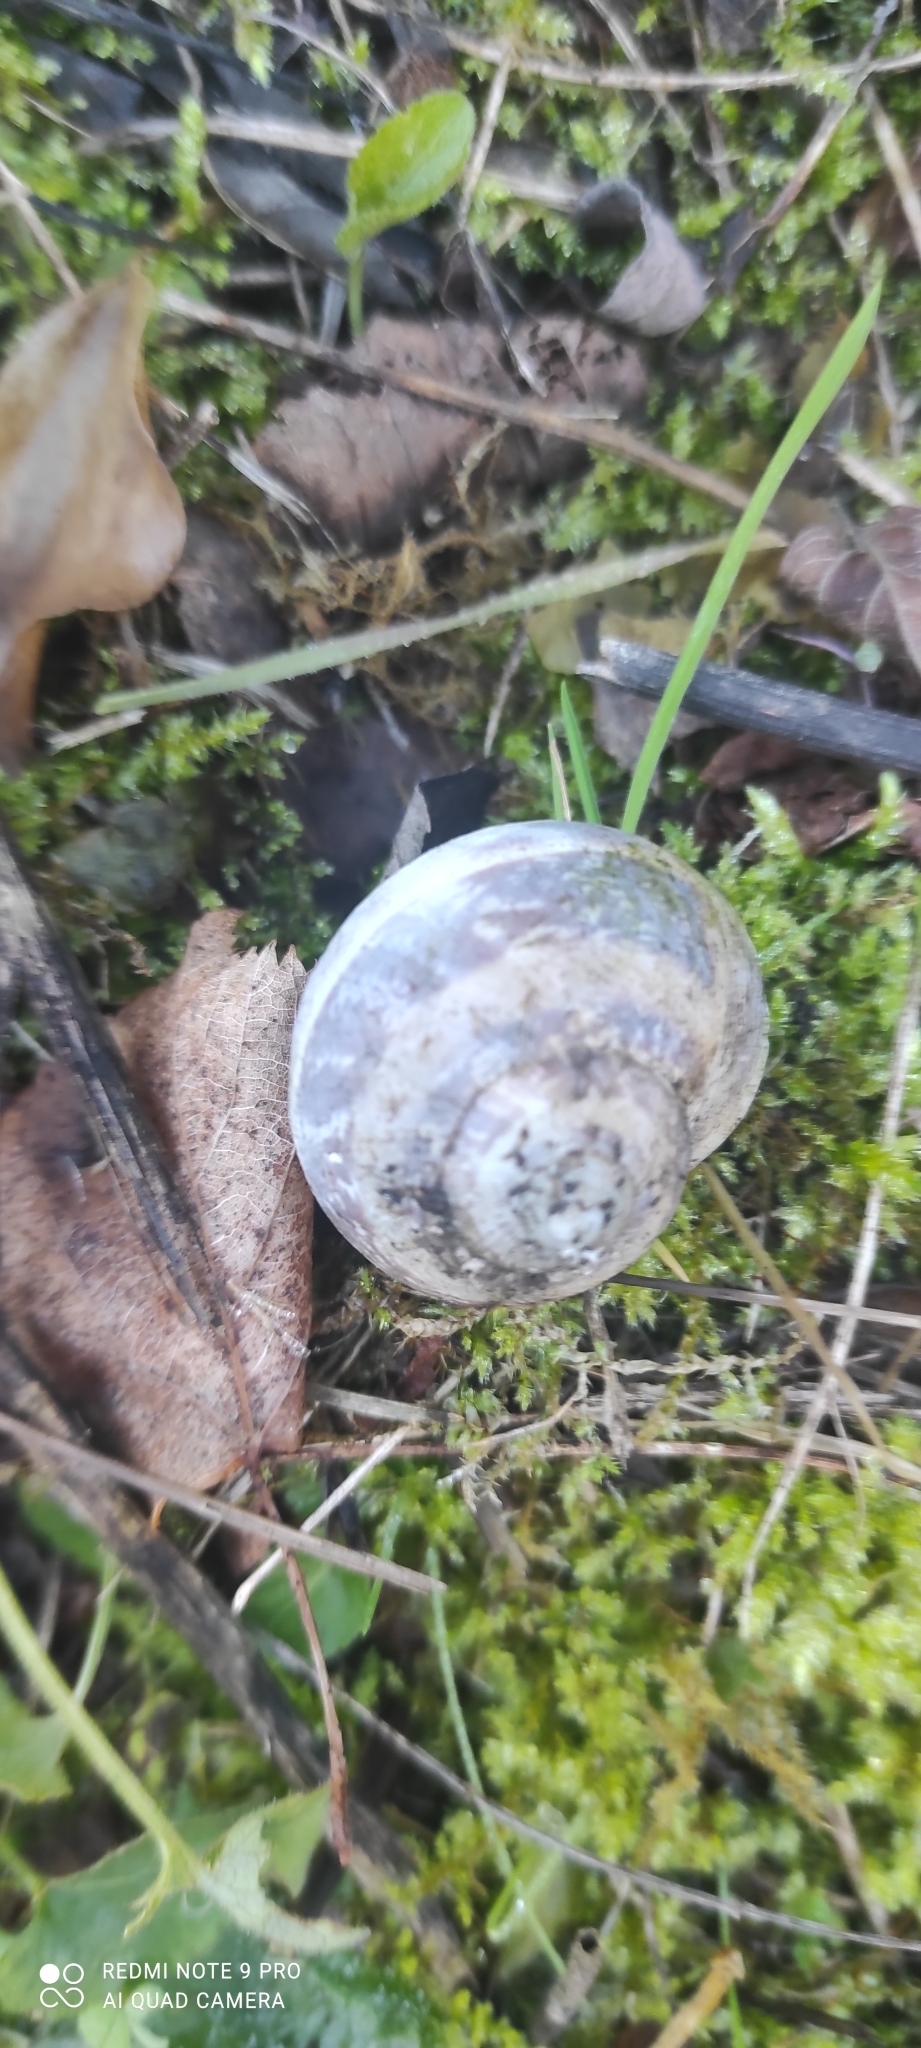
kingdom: Animalia
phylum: Mollusca
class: Gastropoda
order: Stylommatophora
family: Helicidae
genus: Cornu
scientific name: Cornu aspersum
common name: Brown garden snail
